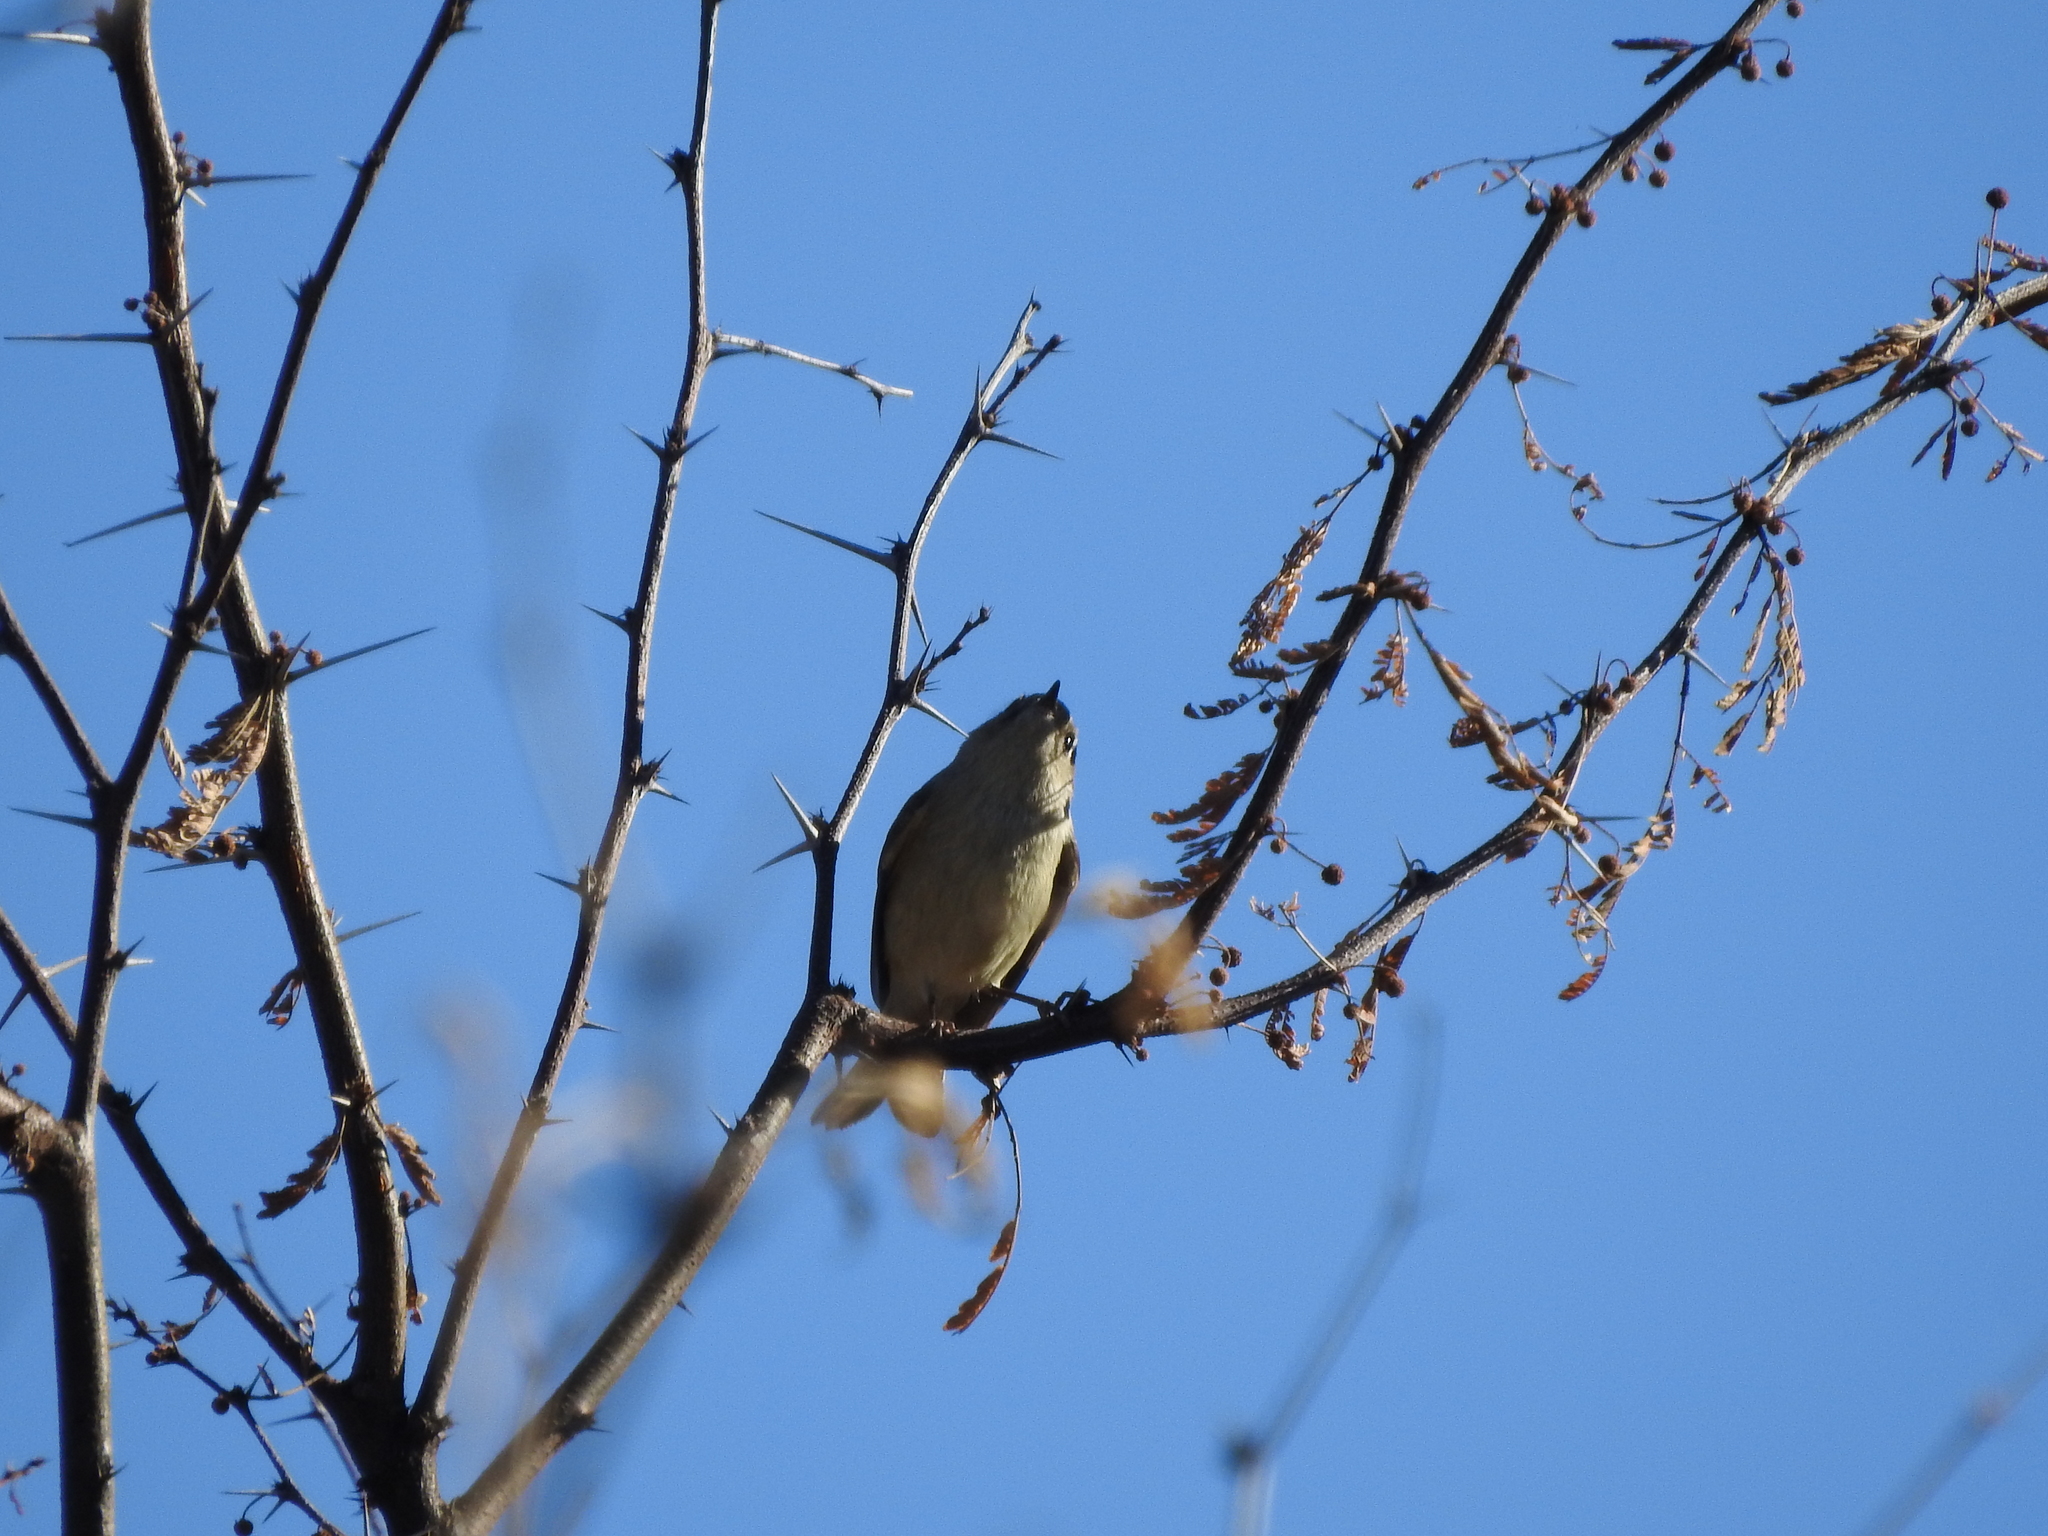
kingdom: Animalia
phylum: Chordata
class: Aves
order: Passeriformes
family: Regulidae
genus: Regulus
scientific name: Regulus calendula
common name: Ruby-crowned kinglet
